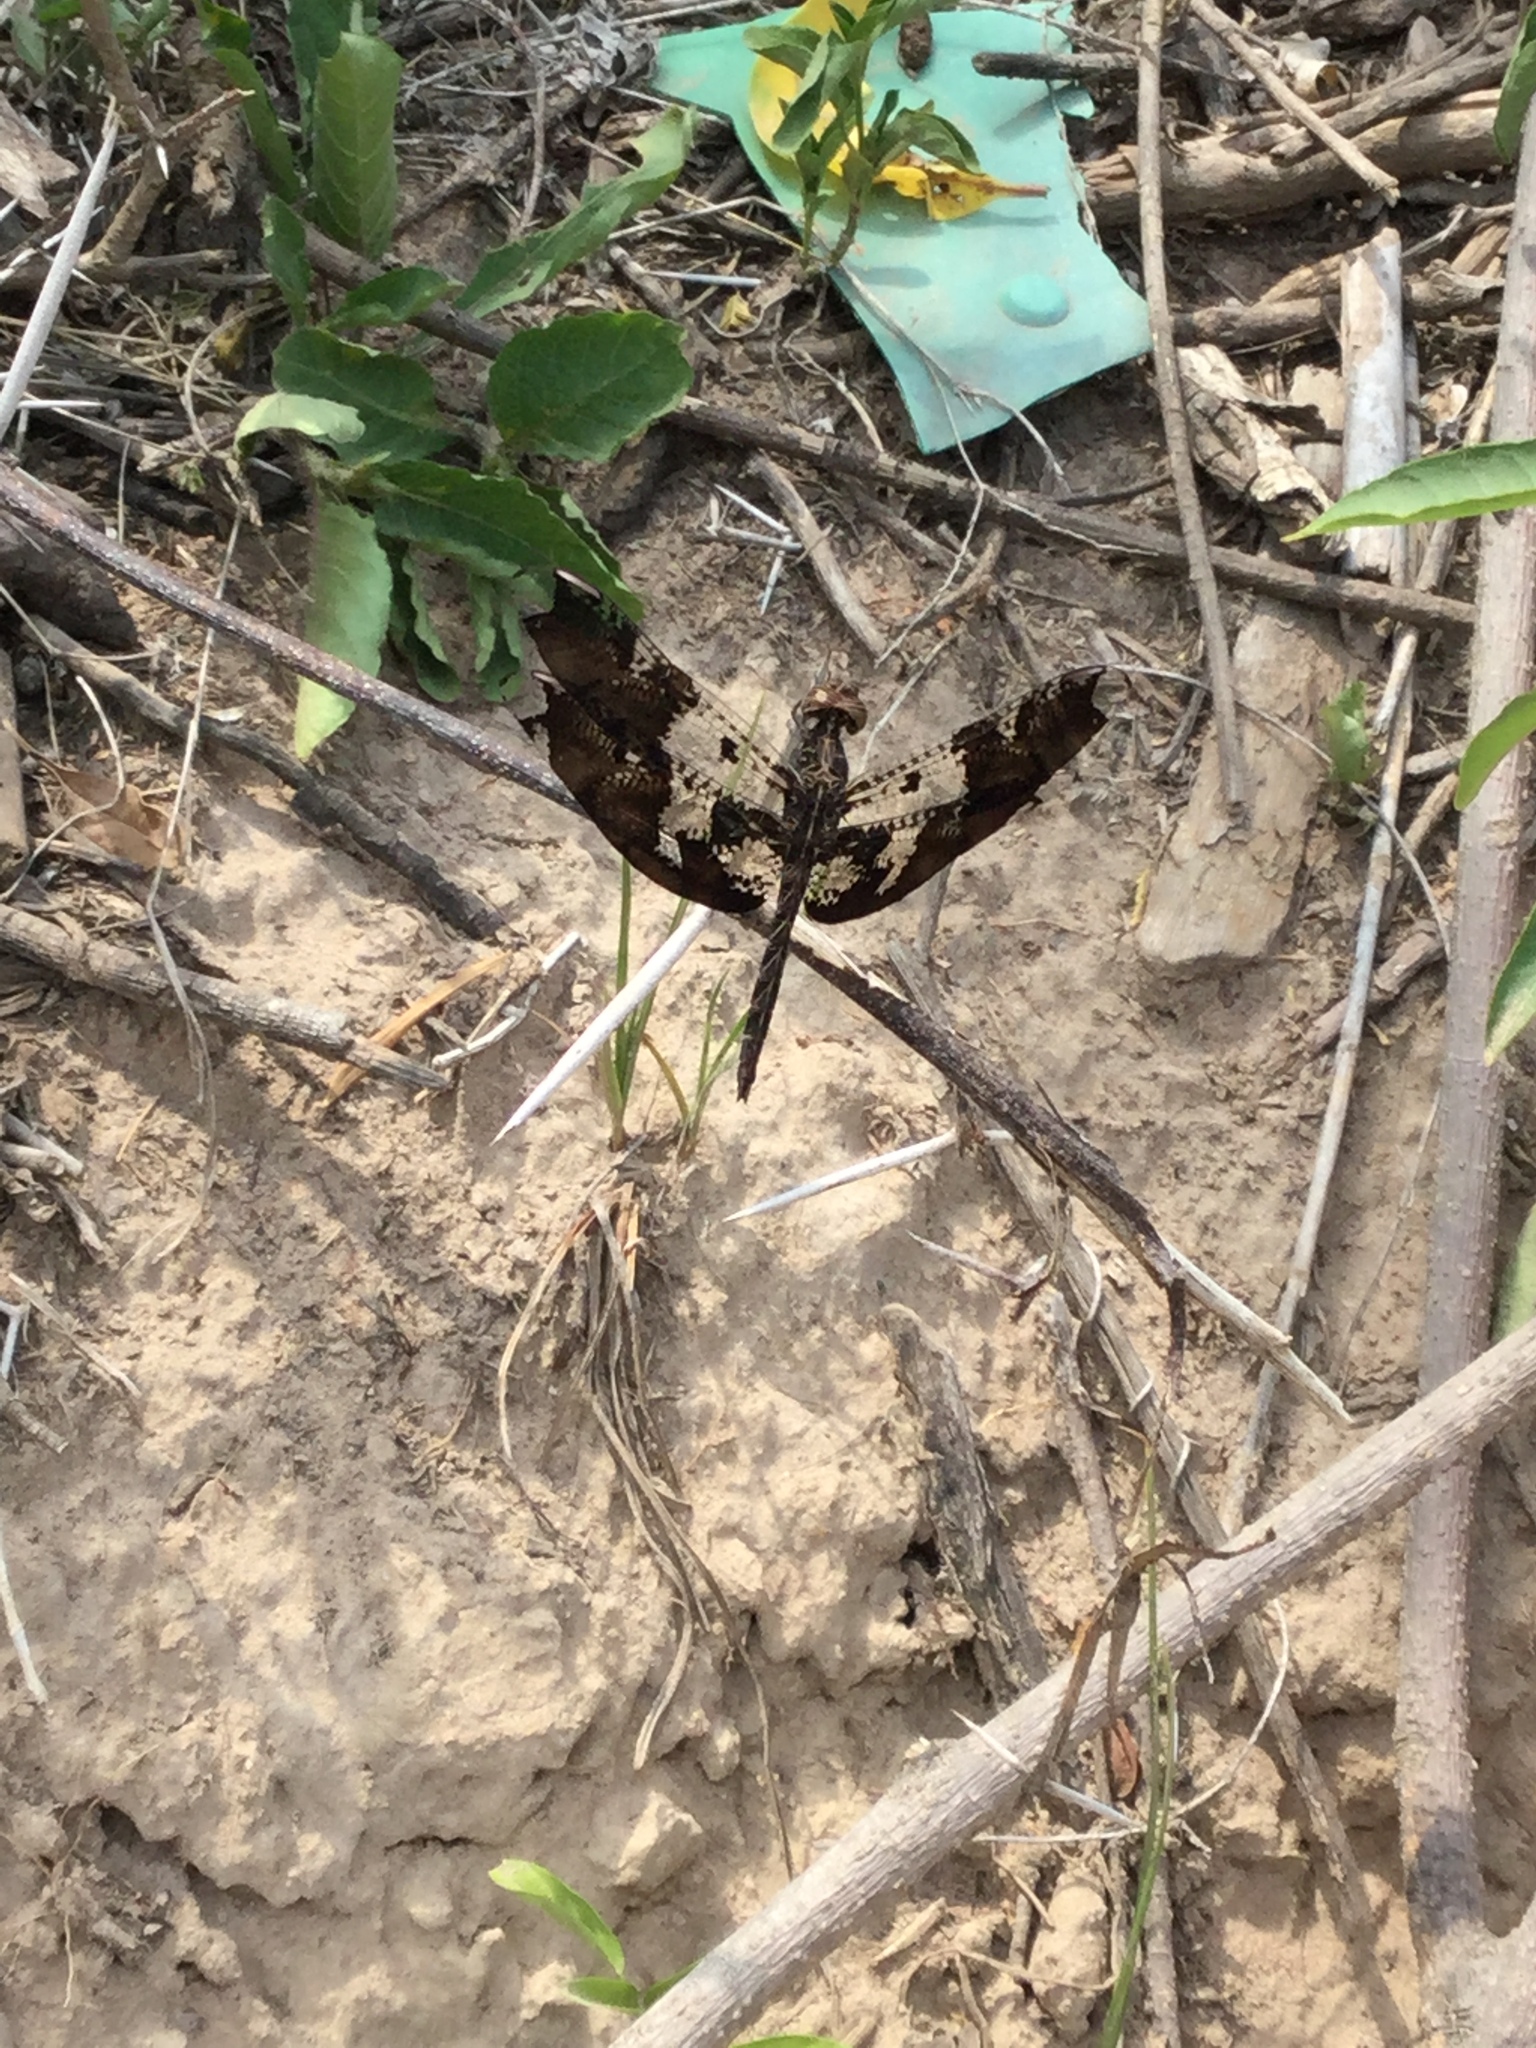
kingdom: Animalia
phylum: Arthropoda
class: Insecta
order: Odonata
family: Libellulidae
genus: Pseudoleon
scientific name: Pseudoleon superbus
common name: Filigree skimmer
